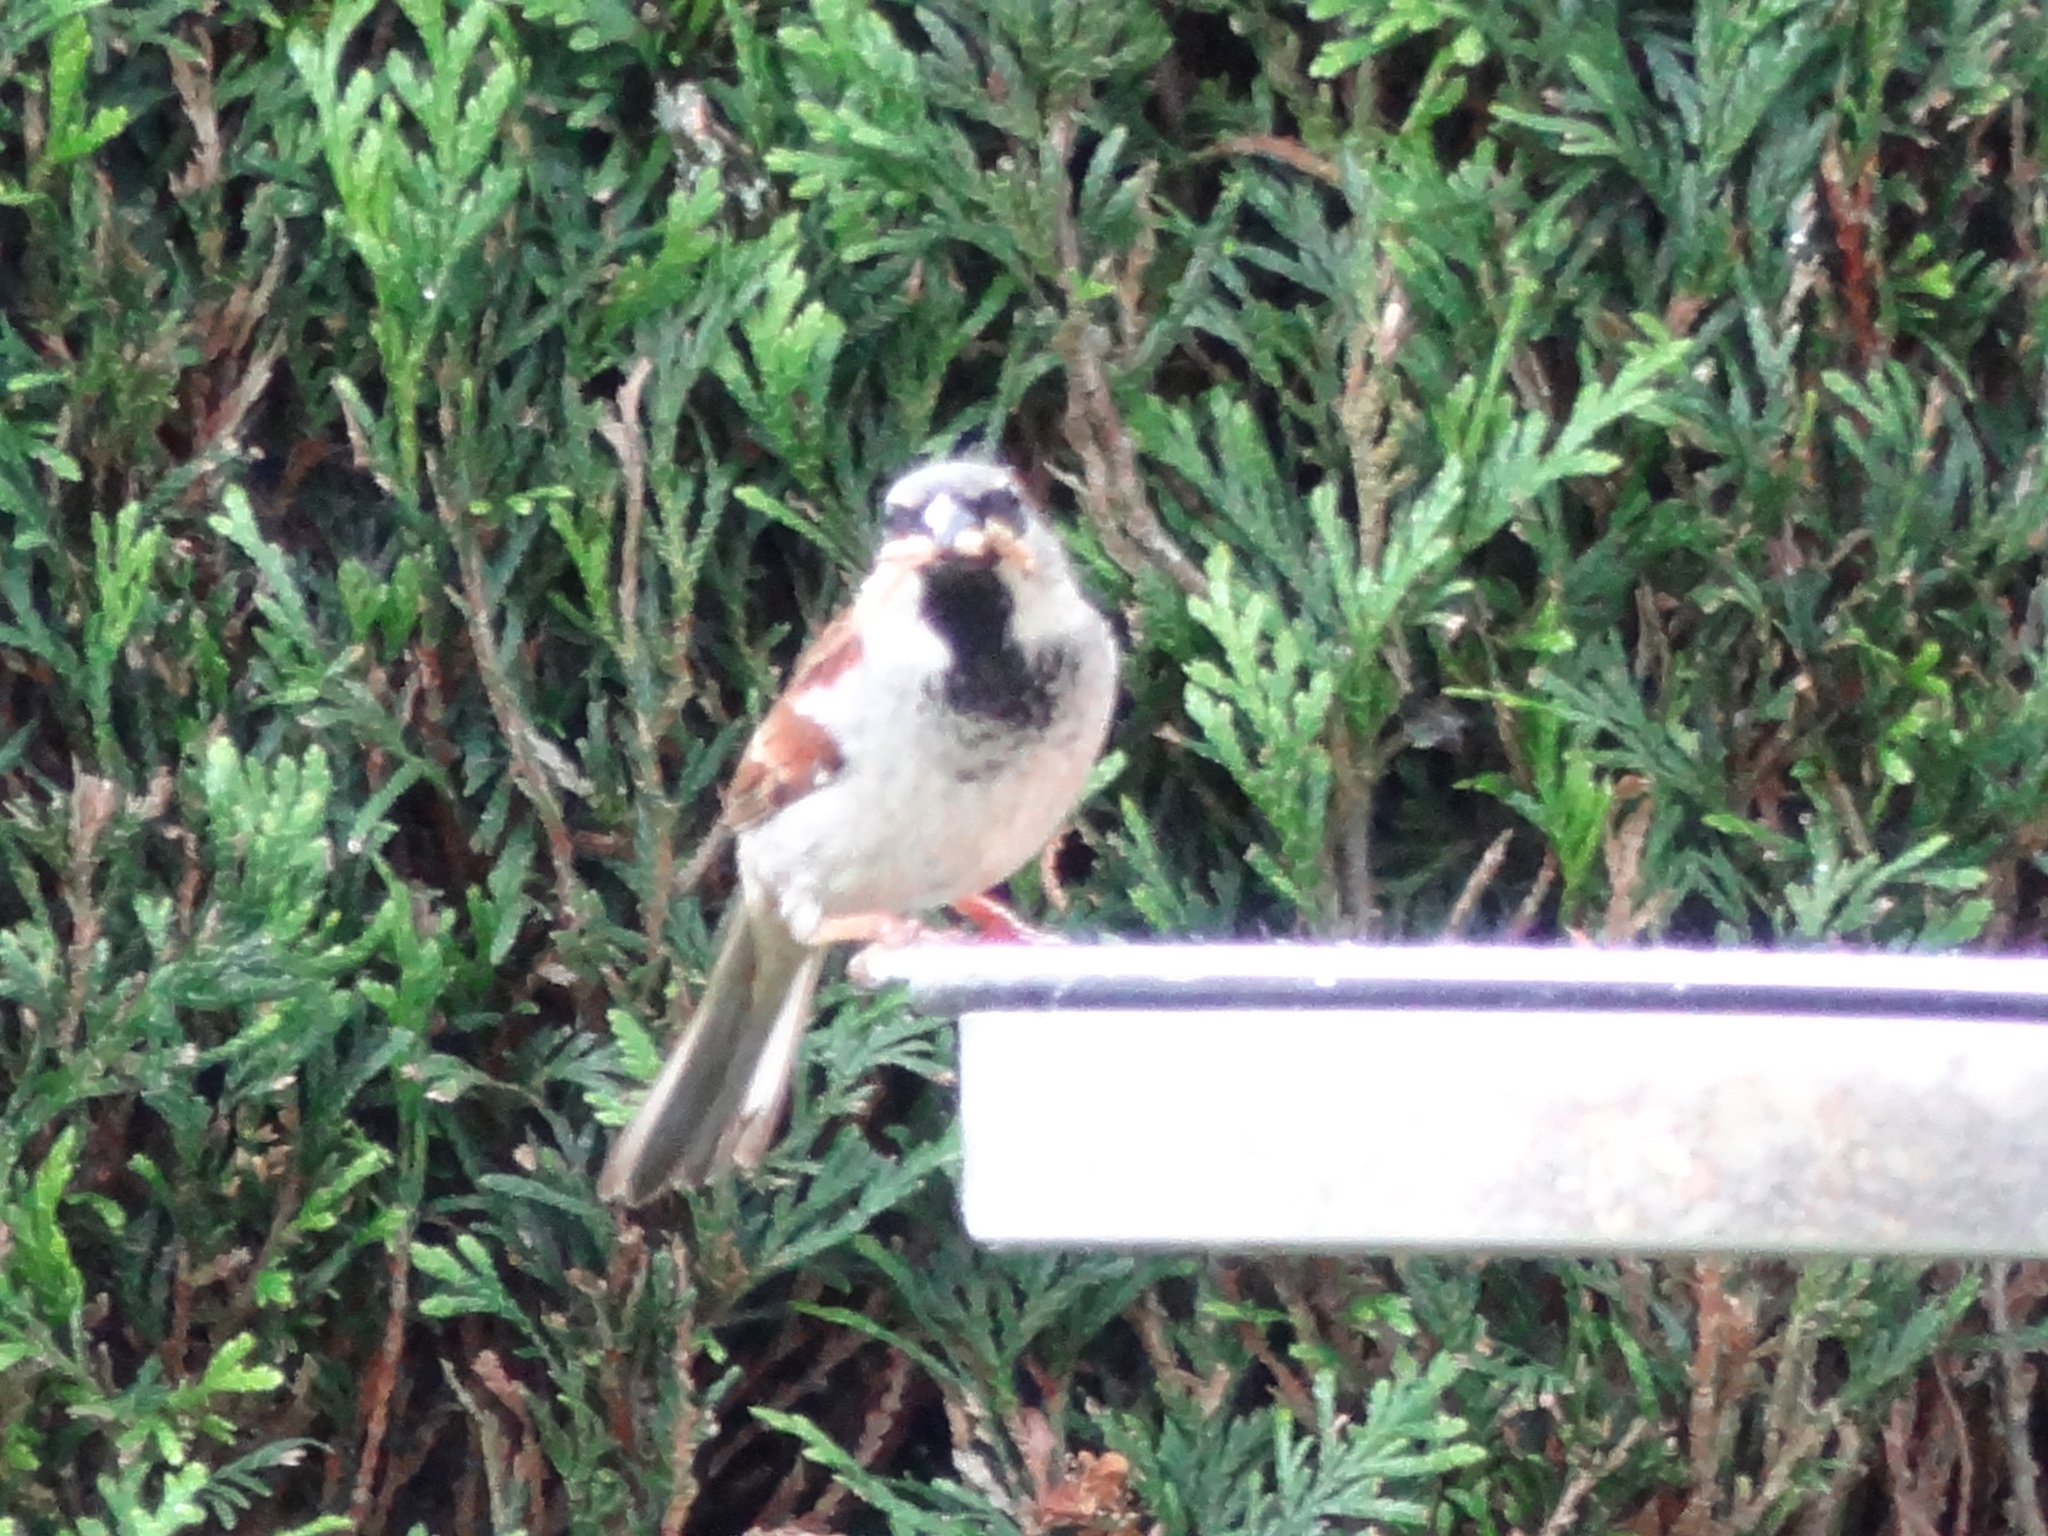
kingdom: Animalia
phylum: Chordata
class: Aves
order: Passeriformes
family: Passeridae
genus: Passer
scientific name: Passer domesticus
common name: House sparrow
